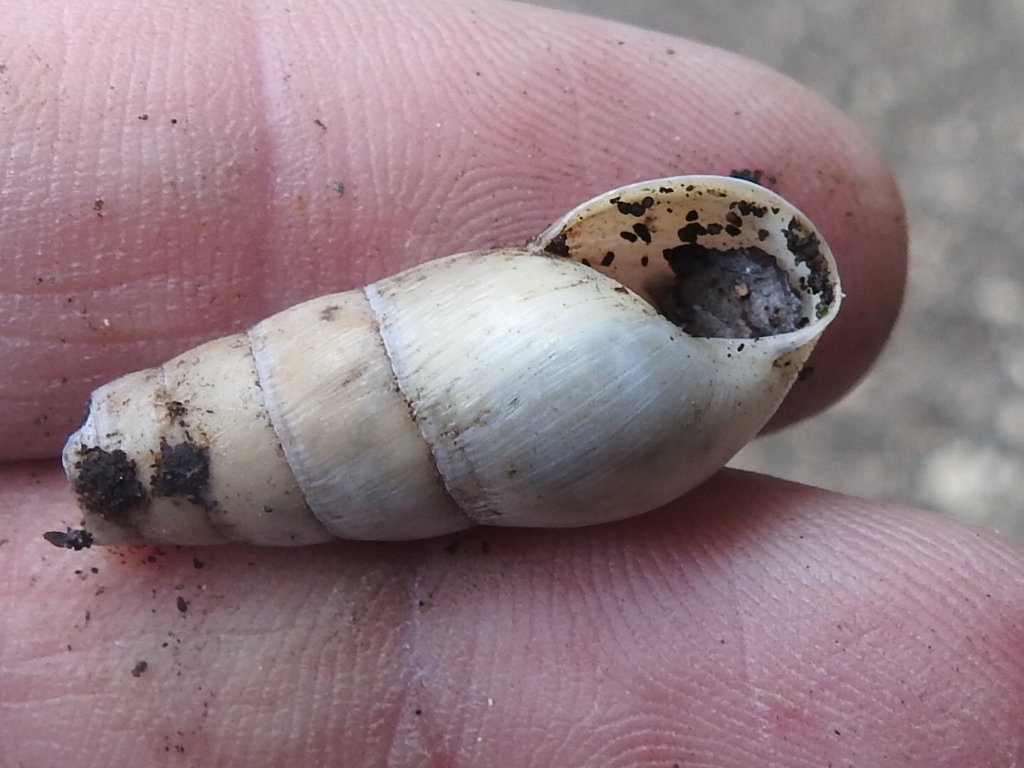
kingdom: Animalia
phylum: Mollusca
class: Gastropoda
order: Stylommatophora
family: Achatinidae
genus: Rumina
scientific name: Rumina decollata
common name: Decollate snail
